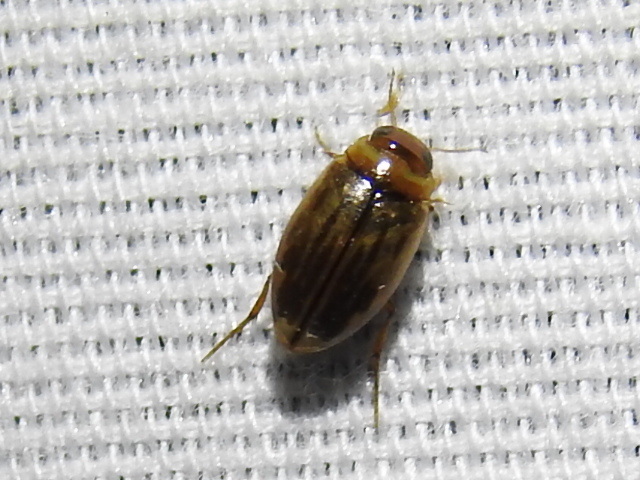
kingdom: Animalia
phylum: Arthropoda
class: Insecta
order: Coleoptera
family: Dytiscidae
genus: Hygrotus
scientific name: Hygrotus nubilus
